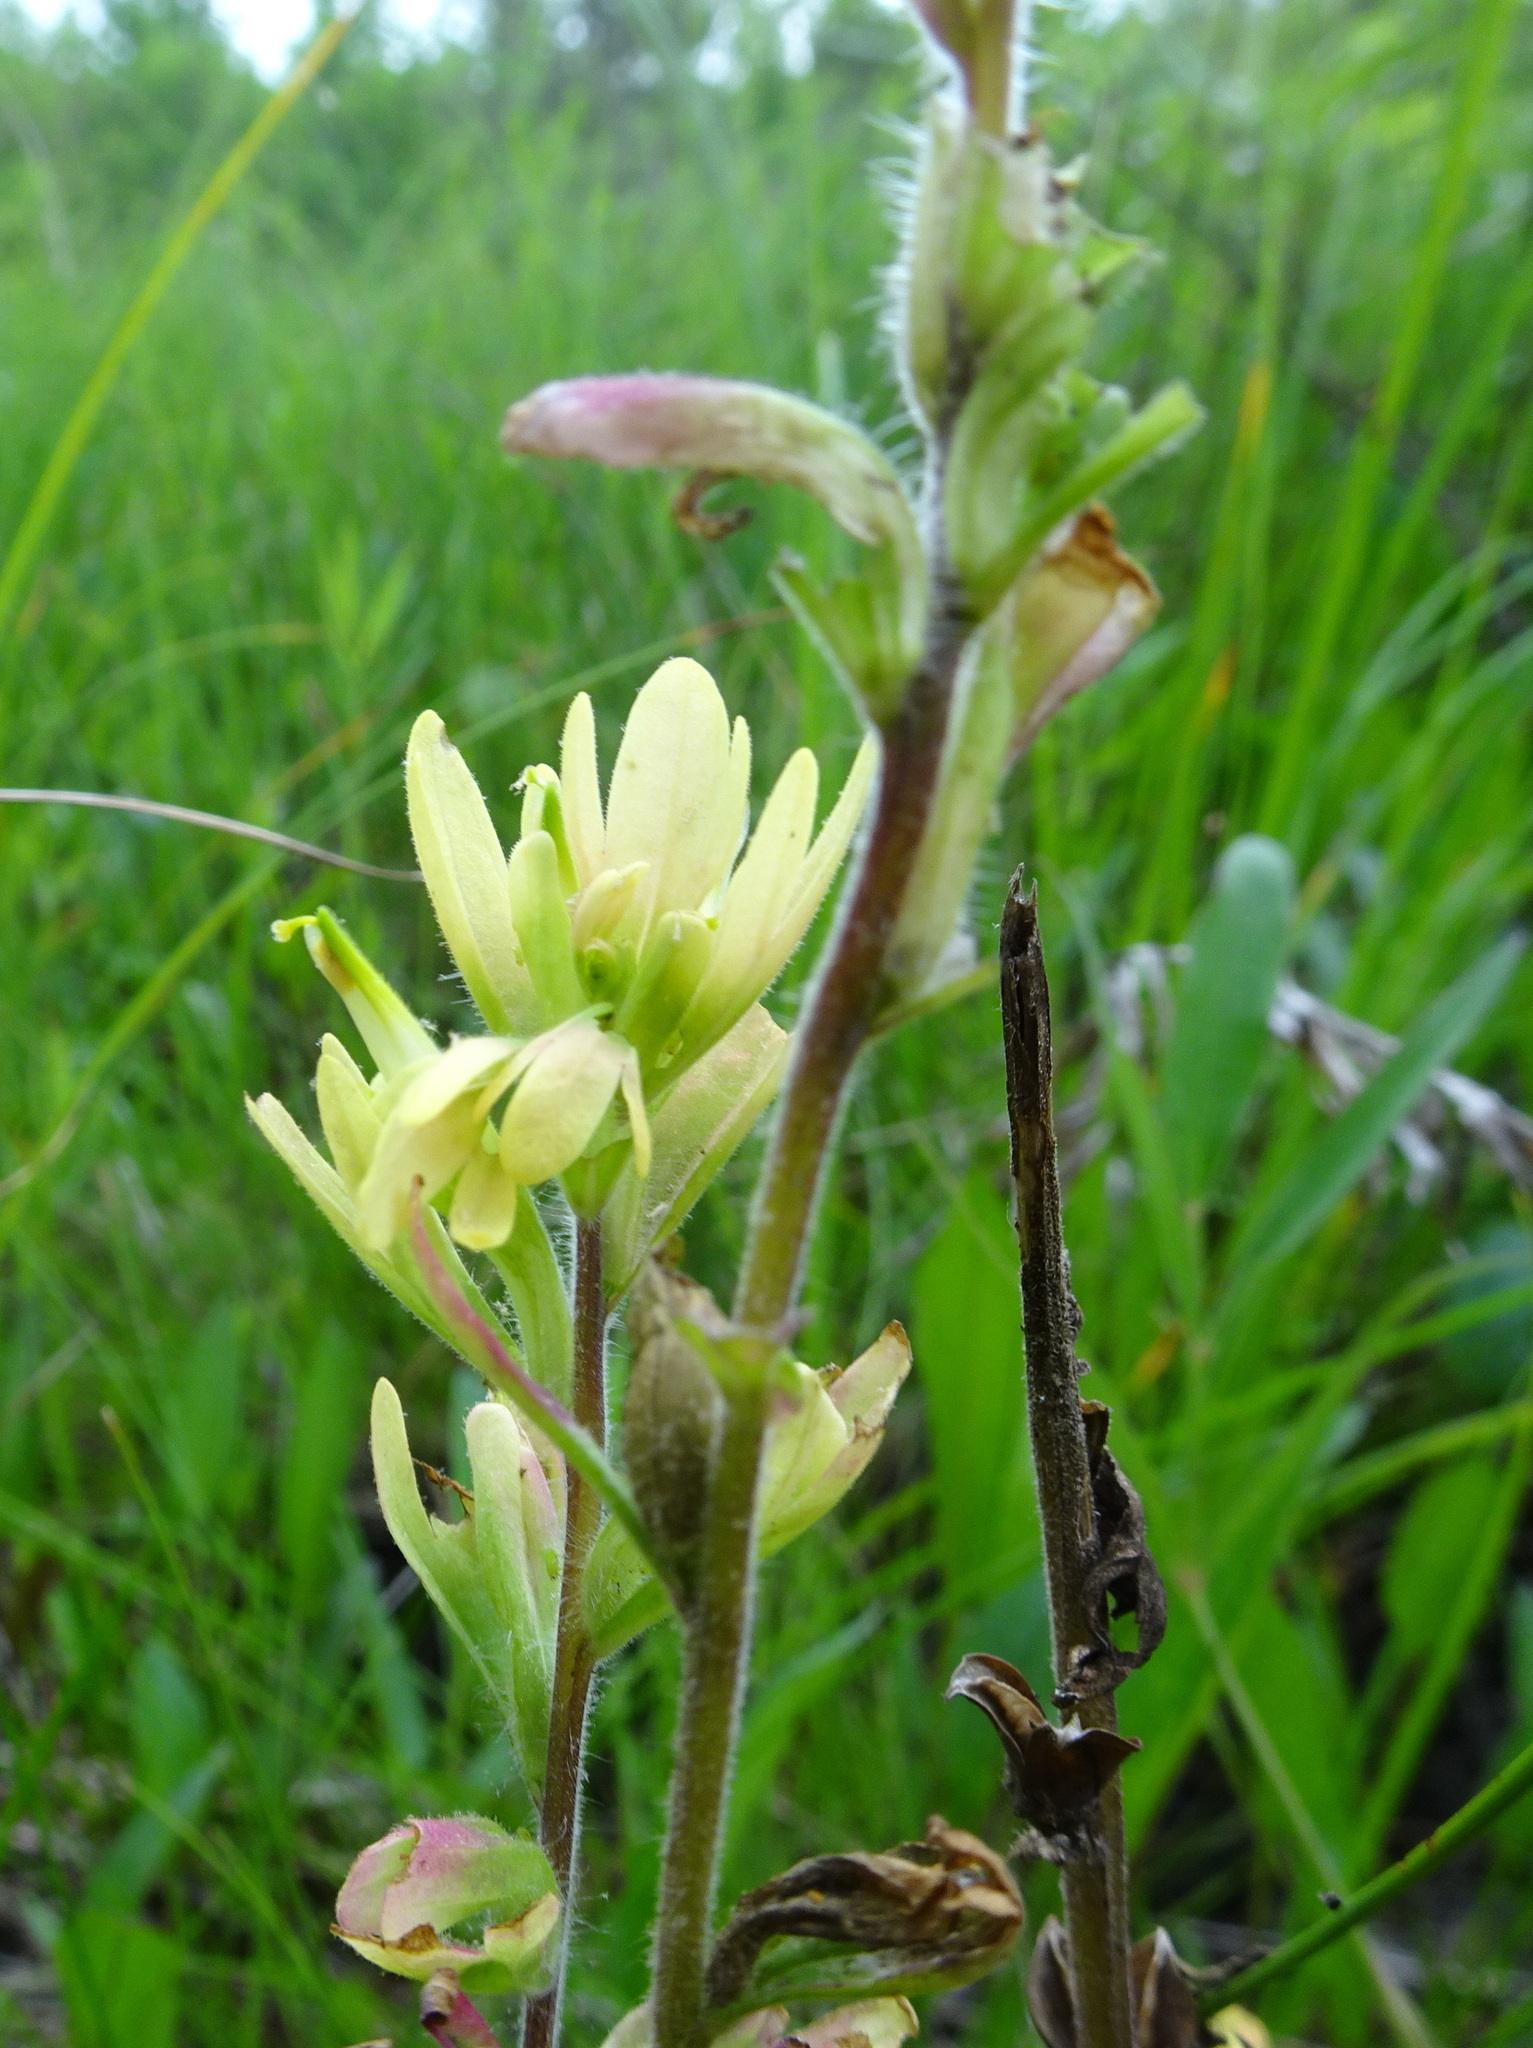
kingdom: Plantae
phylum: Tracheophyta
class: Magnoliopsida
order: Lamiales
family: Orobanchaceae
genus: Castilleja
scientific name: Castilleja coccinea
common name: Scarlet paintbrush
